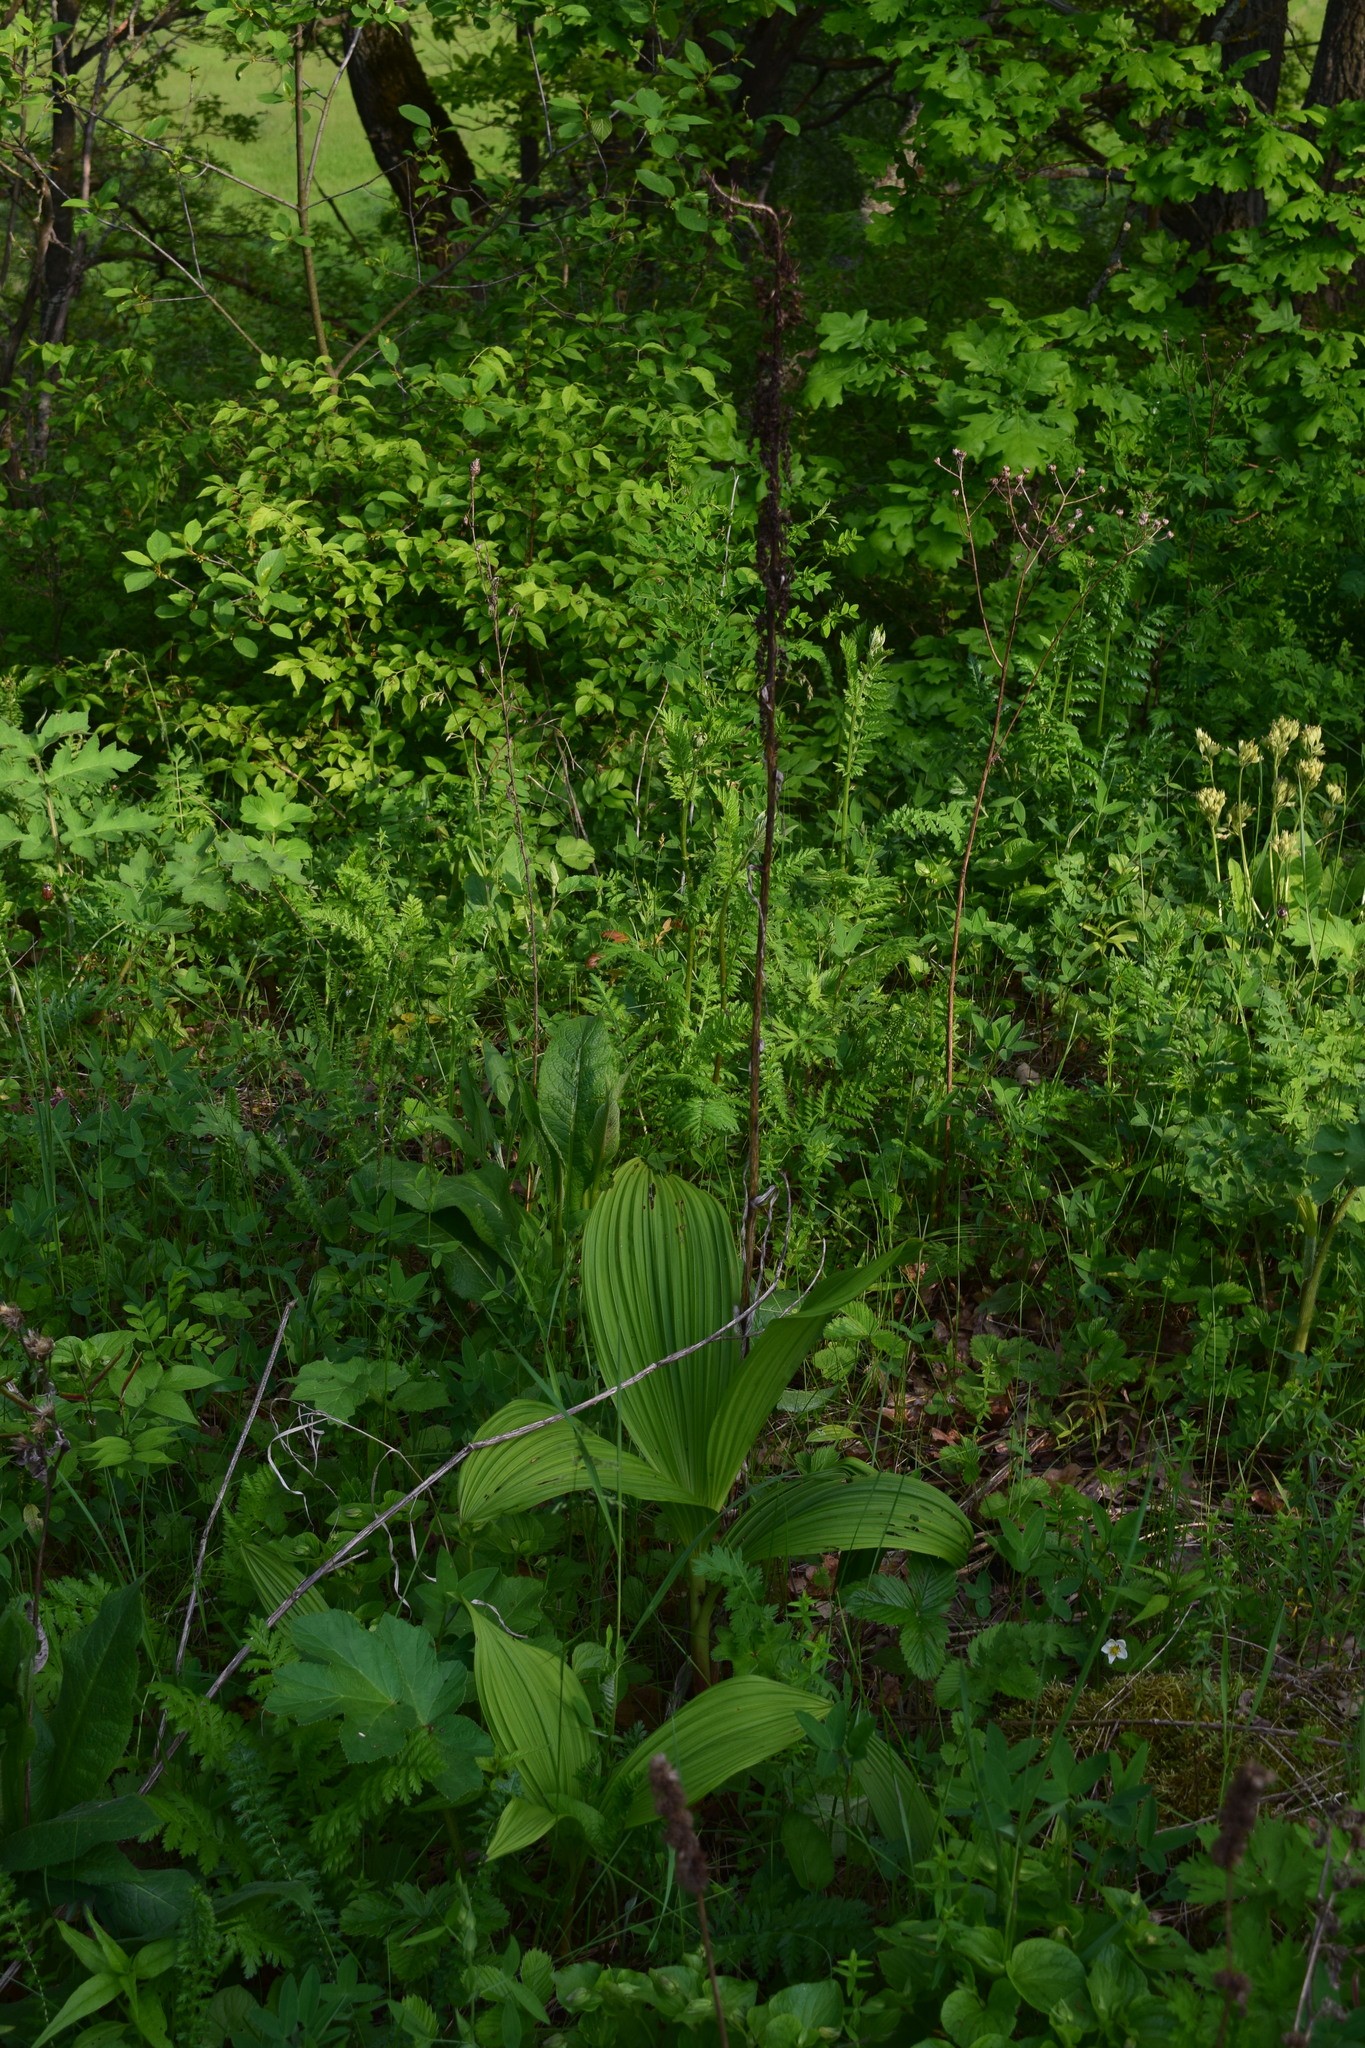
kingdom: Plantae
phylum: Tracheophyta
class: Liliopsida
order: Liliales
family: Melanthiaceae
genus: Veratrum
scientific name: Veratrum nigrum
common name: Black veratrum
